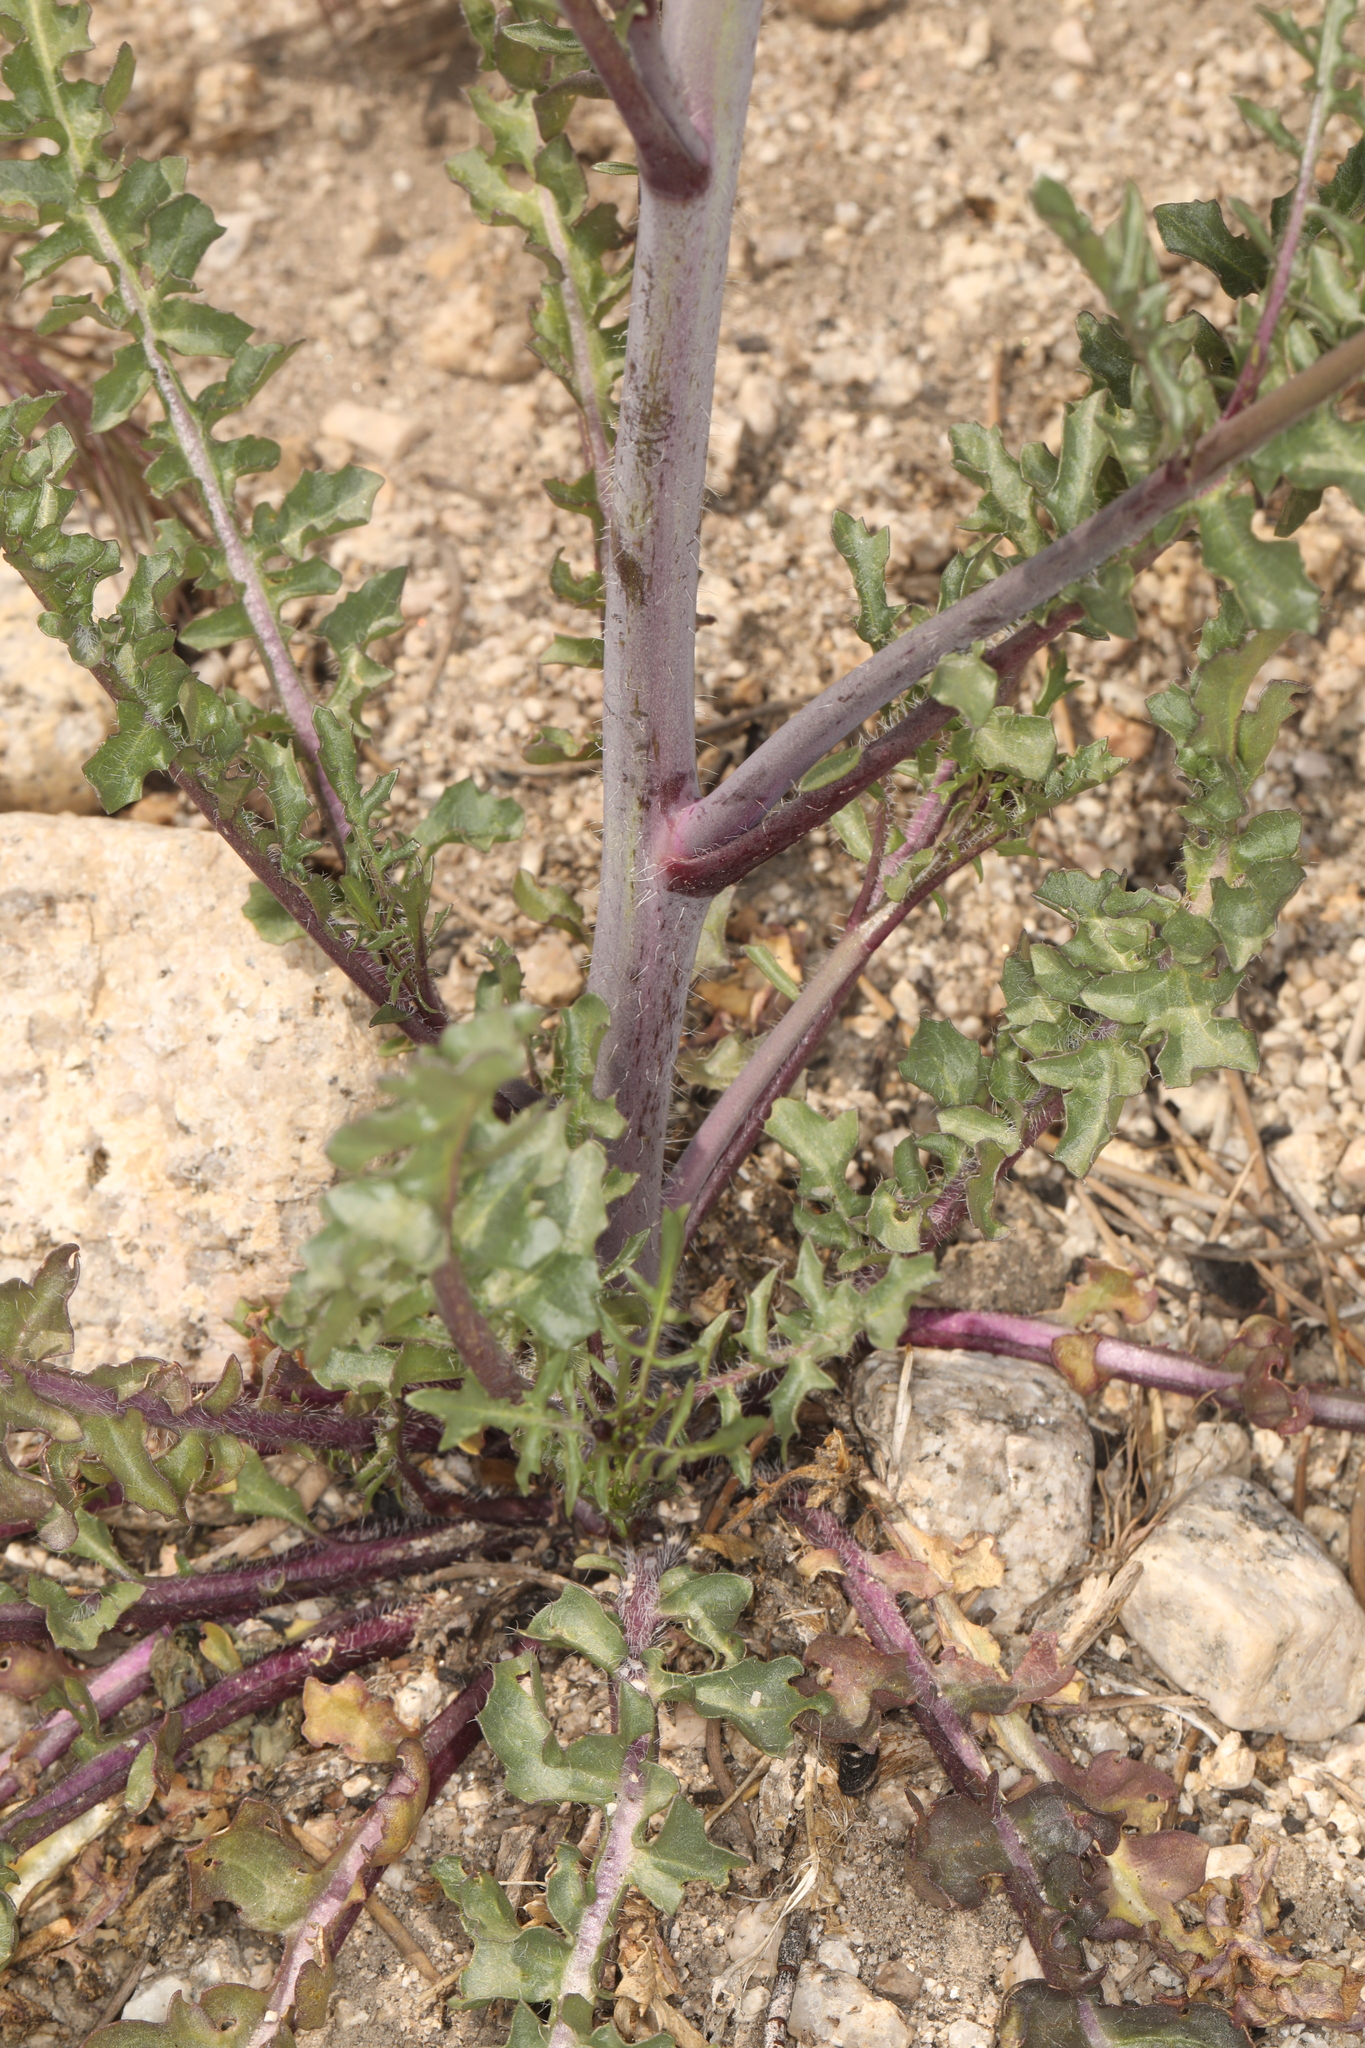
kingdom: Plantae
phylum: Tracheophyta
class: Magnoliopsida
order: Brassicales
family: Brassicaceae
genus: Streptanthus
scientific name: Streptanthus pilosus
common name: Chocolate drops
